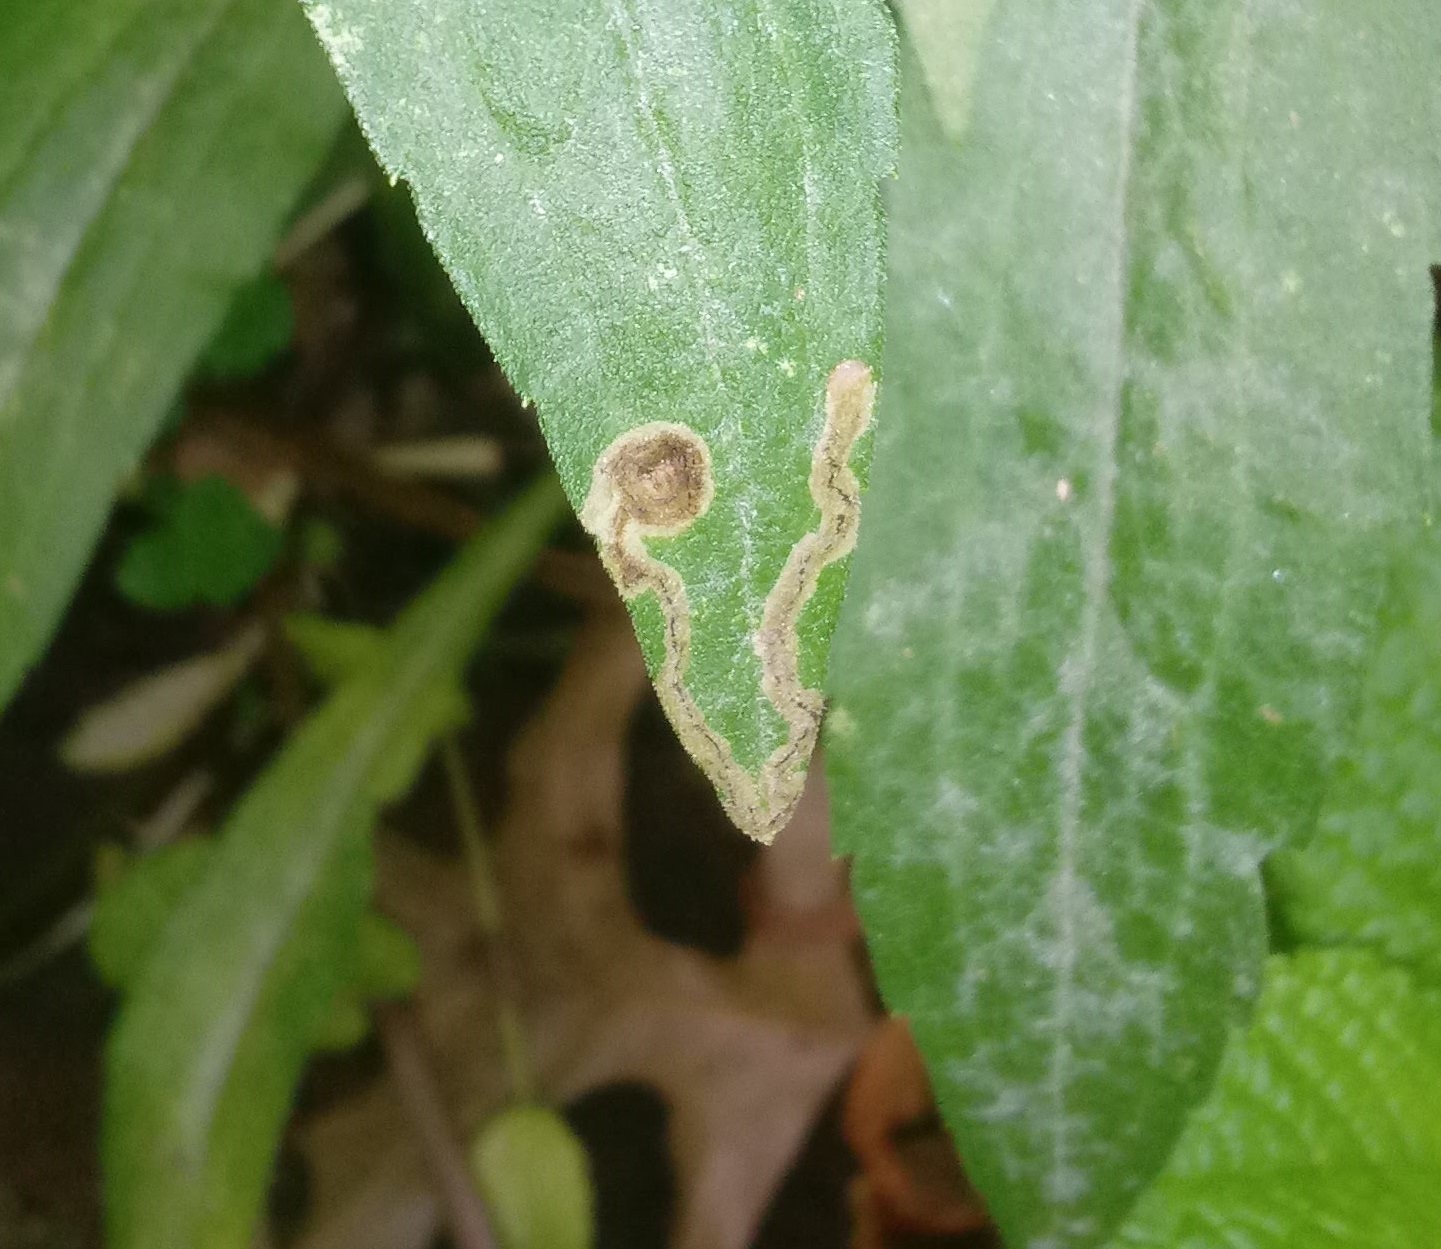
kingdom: Animalia
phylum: Arthropoda
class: Insecta
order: Diptera
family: Agromyzidae
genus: Liriomyza
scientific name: Liriomyza eupatorii
